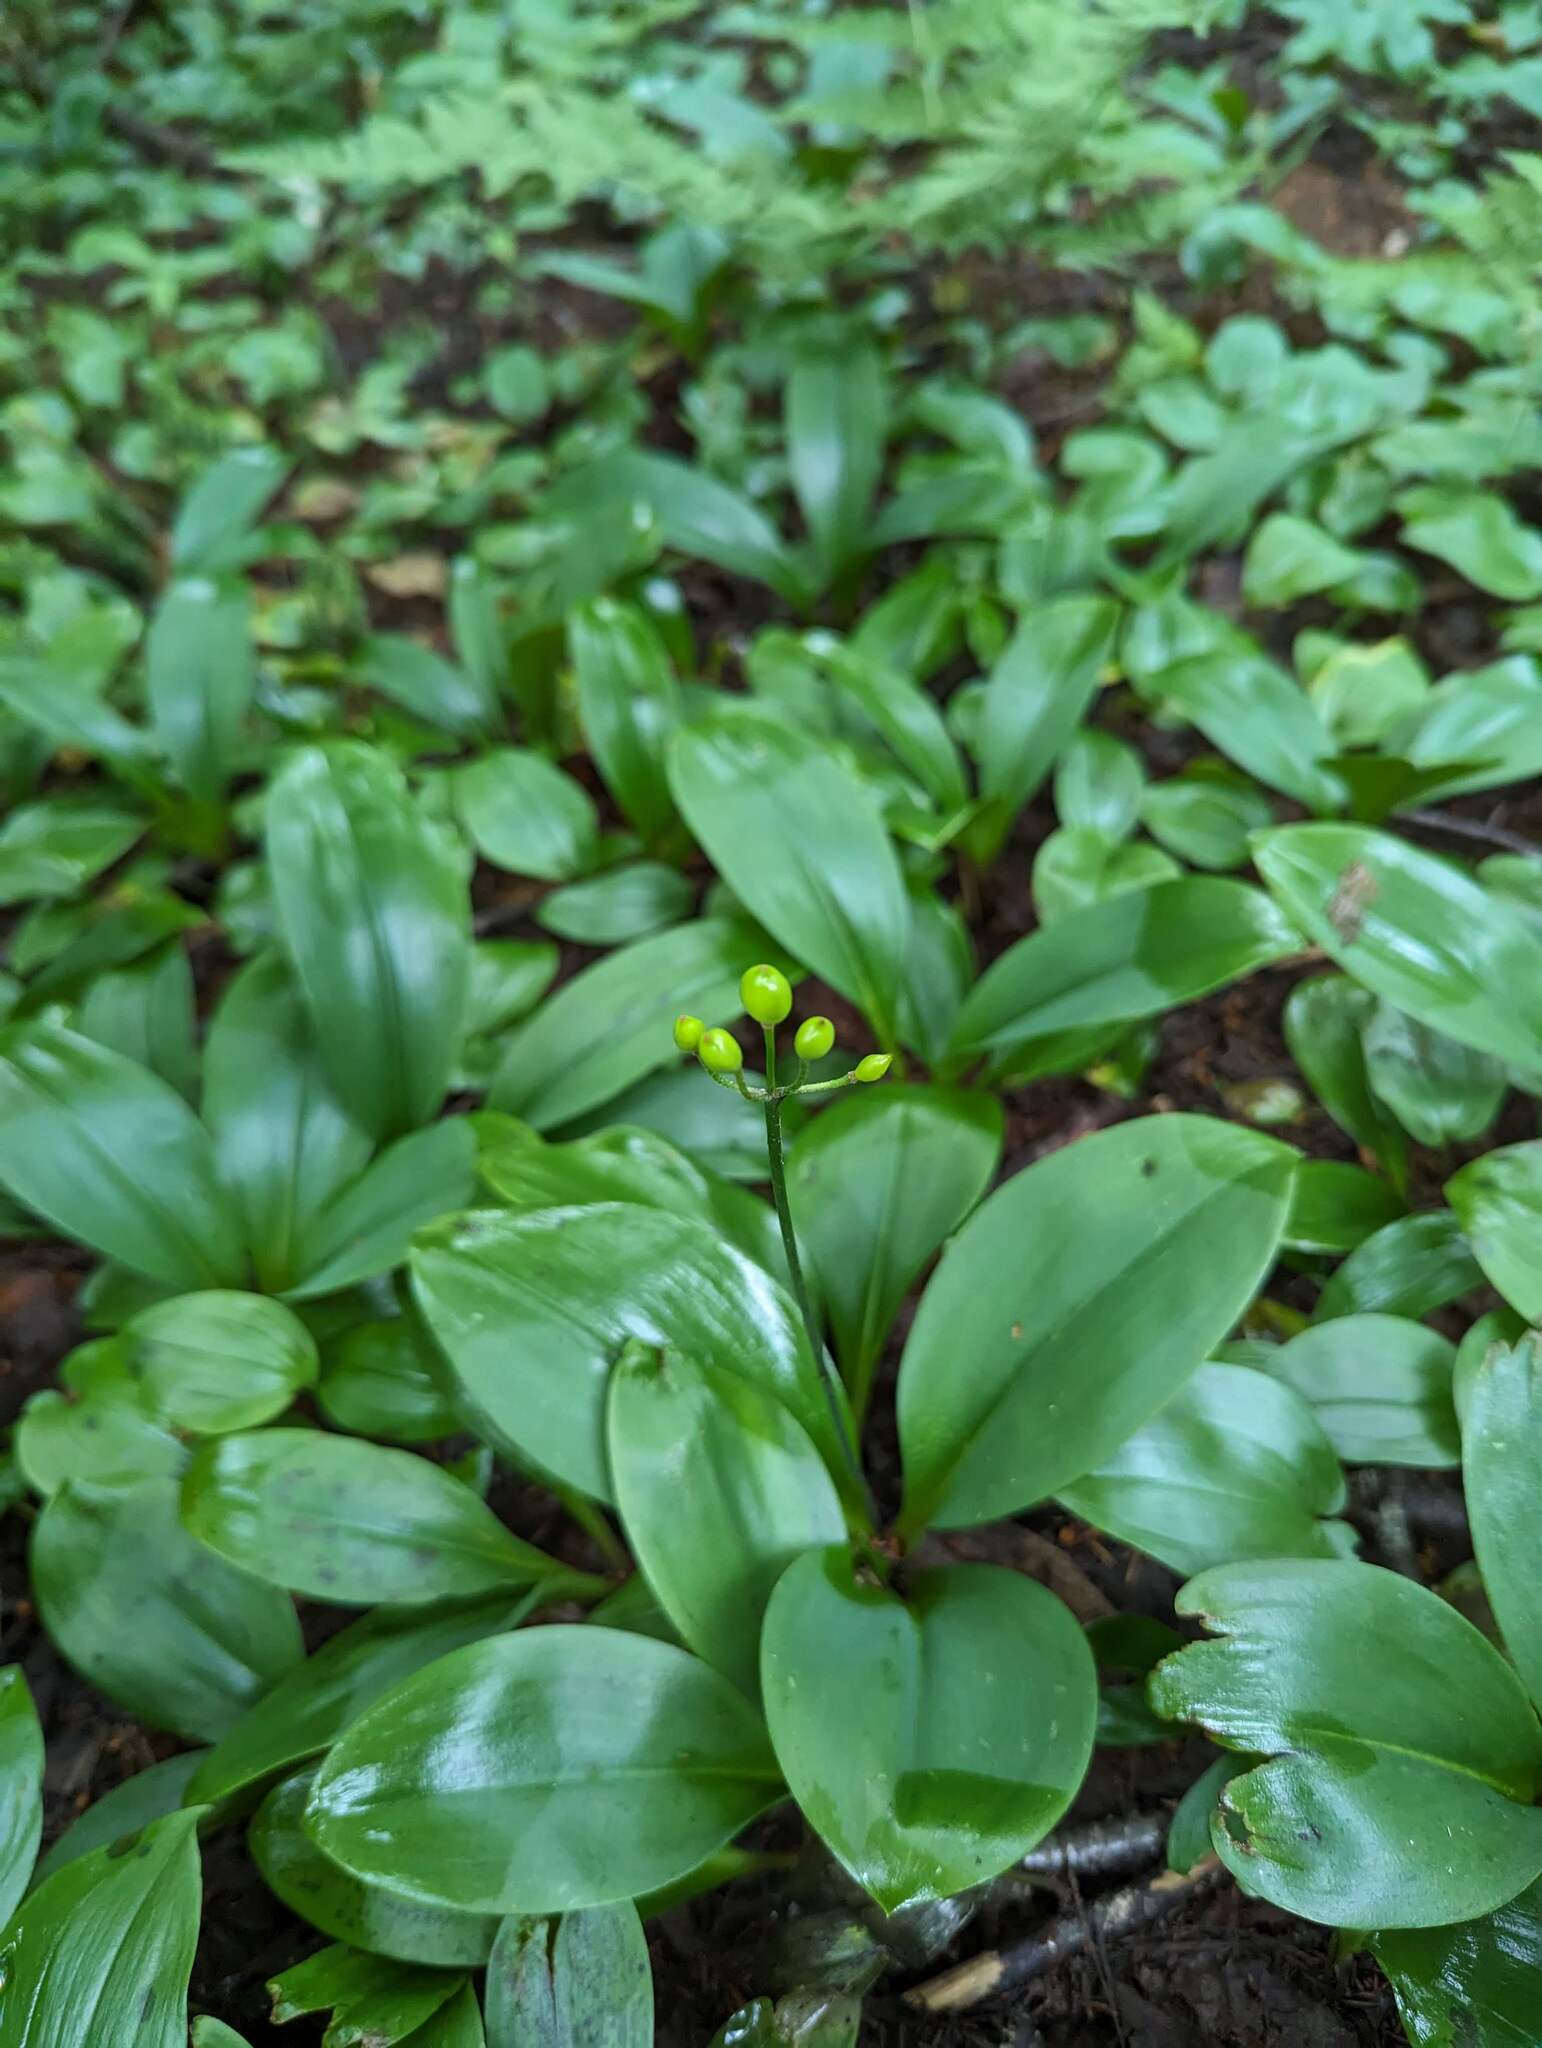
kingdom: Plantae
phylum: Tracheophyta
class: Liliopsida
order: Liliales
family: Liliaceae
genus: Clintonia
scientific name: Clintonia borealis
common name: Yellow clintonia
